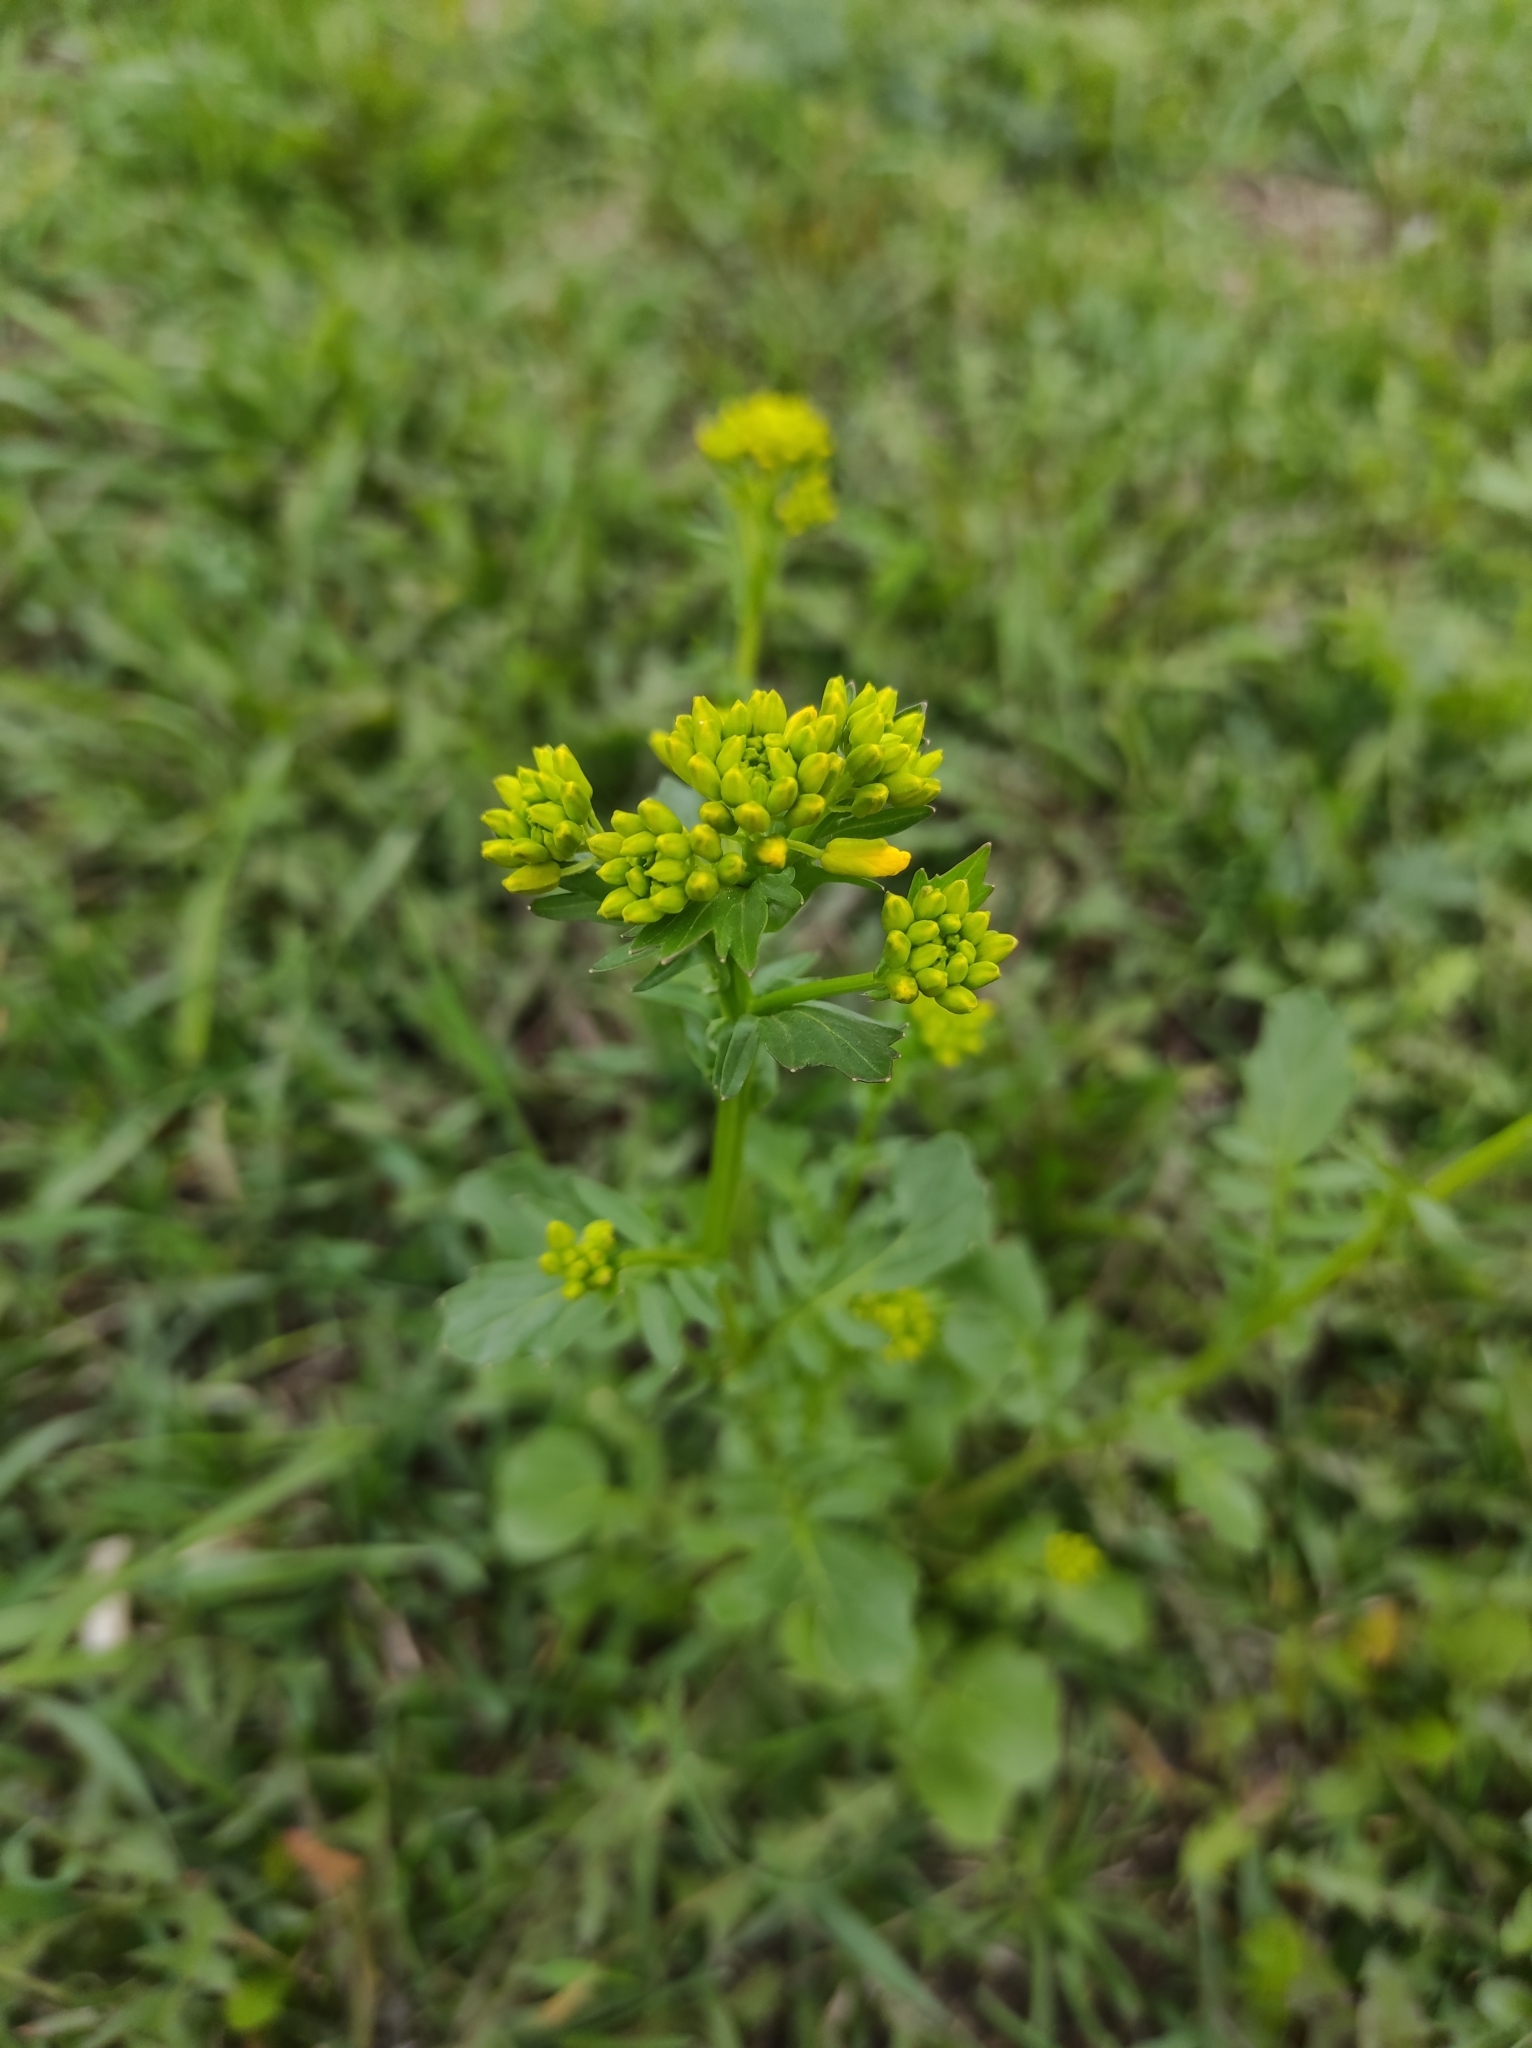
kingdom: Plantae
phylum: Tracheophyta
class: Magnoliopsida
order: Brassicales
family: Brassicaceae
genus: Barbarea
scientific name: Barbarea vulgaris
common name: Cressy-greens
